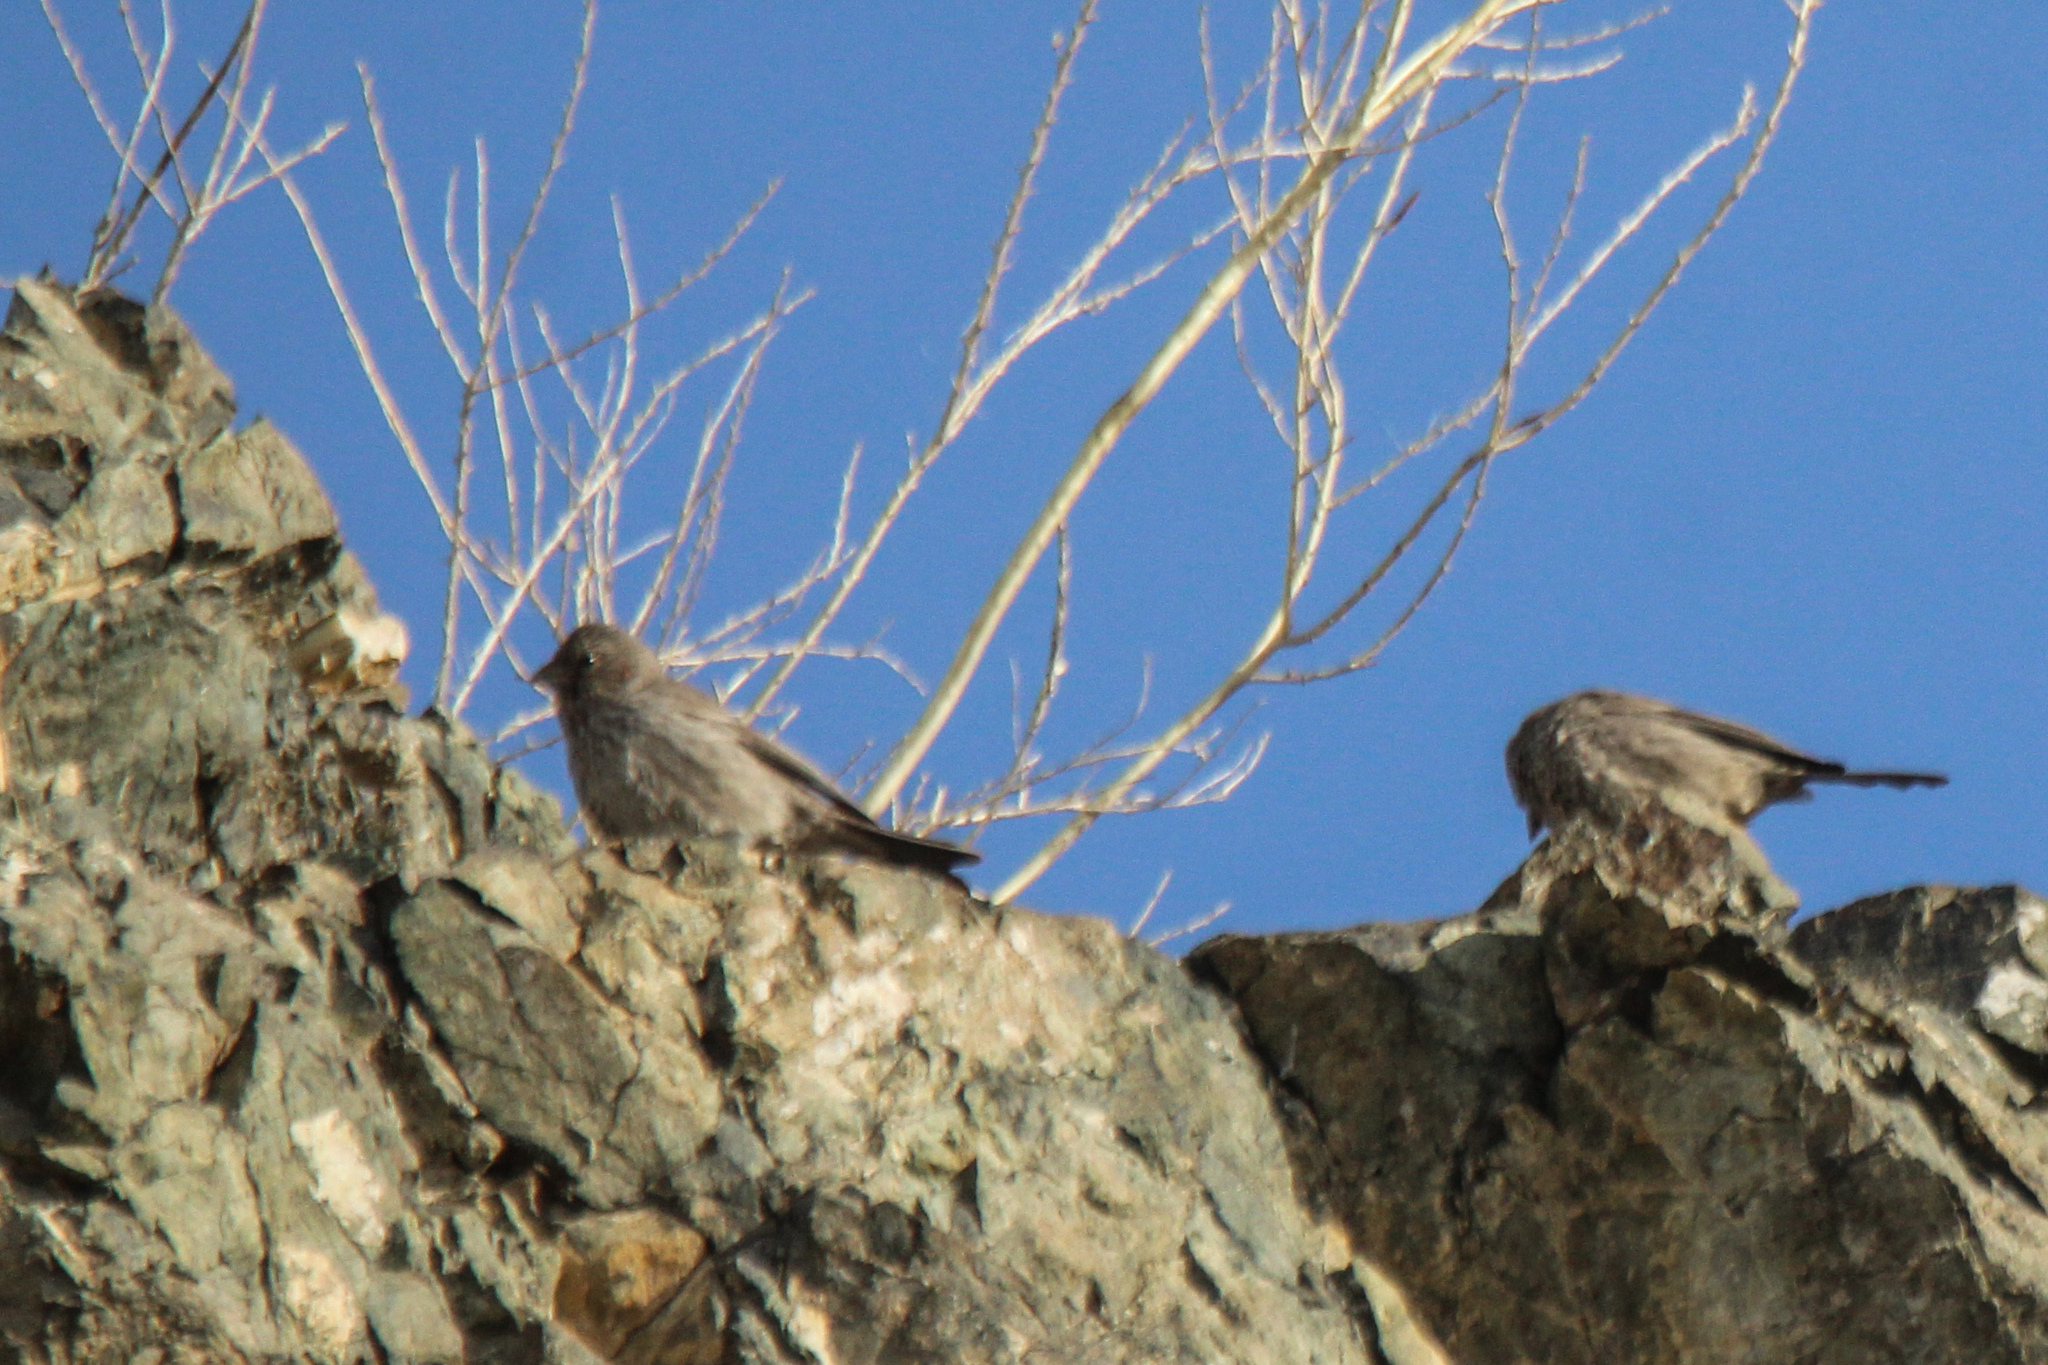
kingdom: Animalia
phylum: Chordata
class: Aves
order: Passeriformes
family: Fringillidae
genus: Carpodacus
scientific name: Carpodacus rubicilla
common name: Great rosefinch
